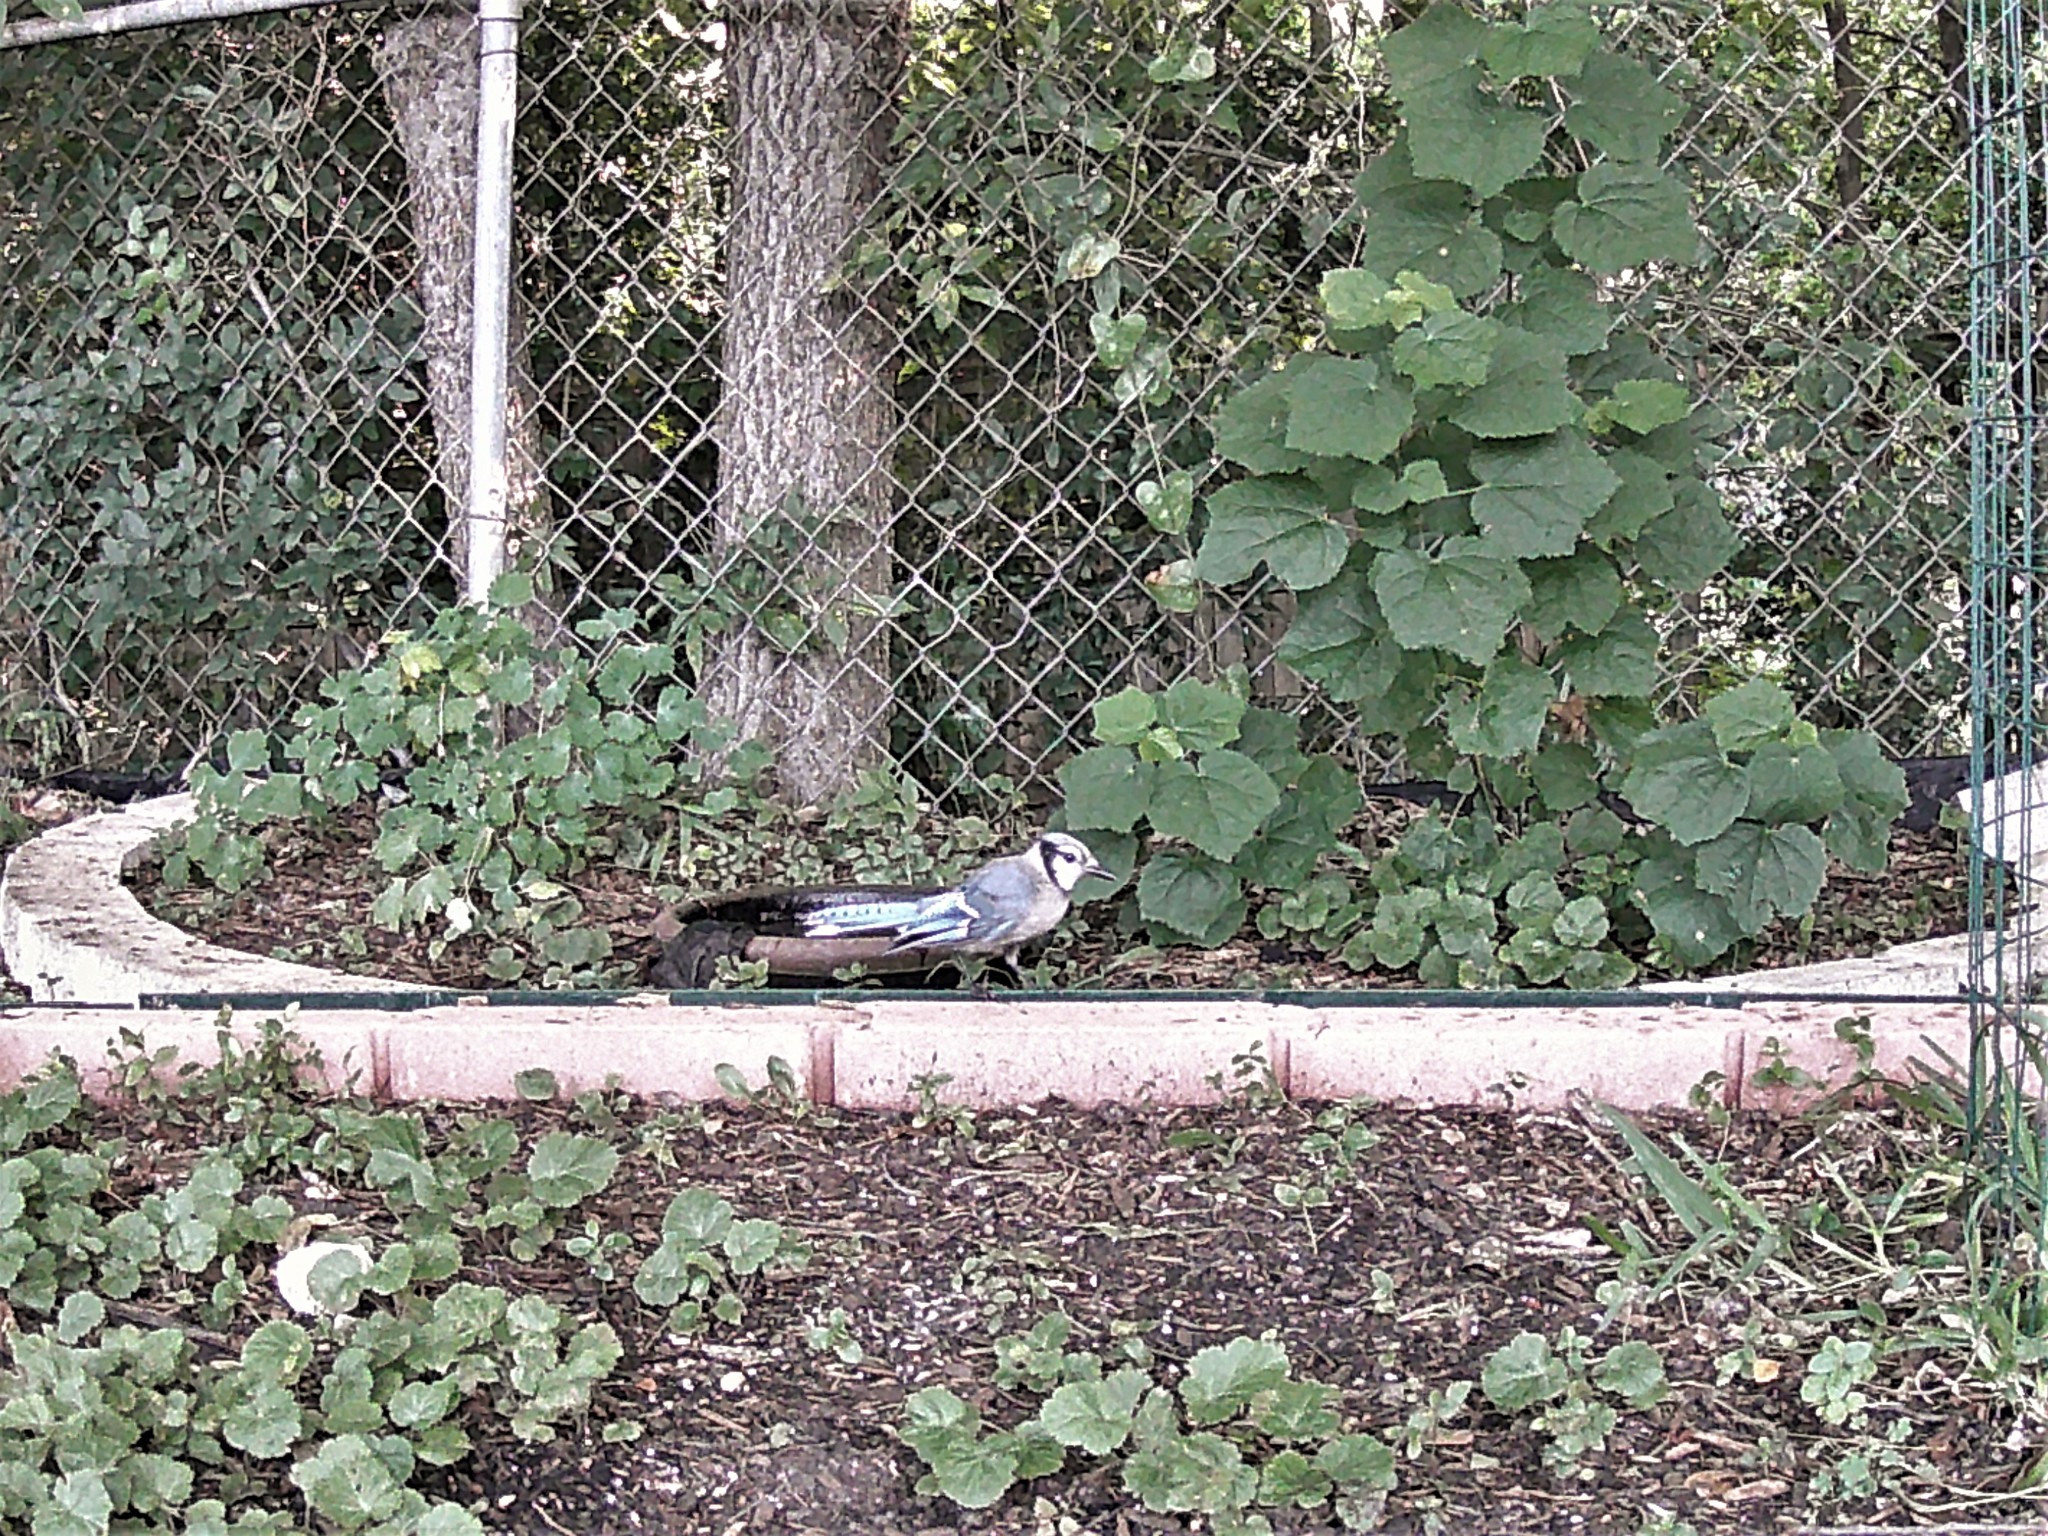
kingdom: Animalia
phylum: Chordata
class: Aves
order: Passeriformes
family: Corvidae
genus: Cyanocitta
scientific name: Cyanocitta cristata
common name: Blue jay
